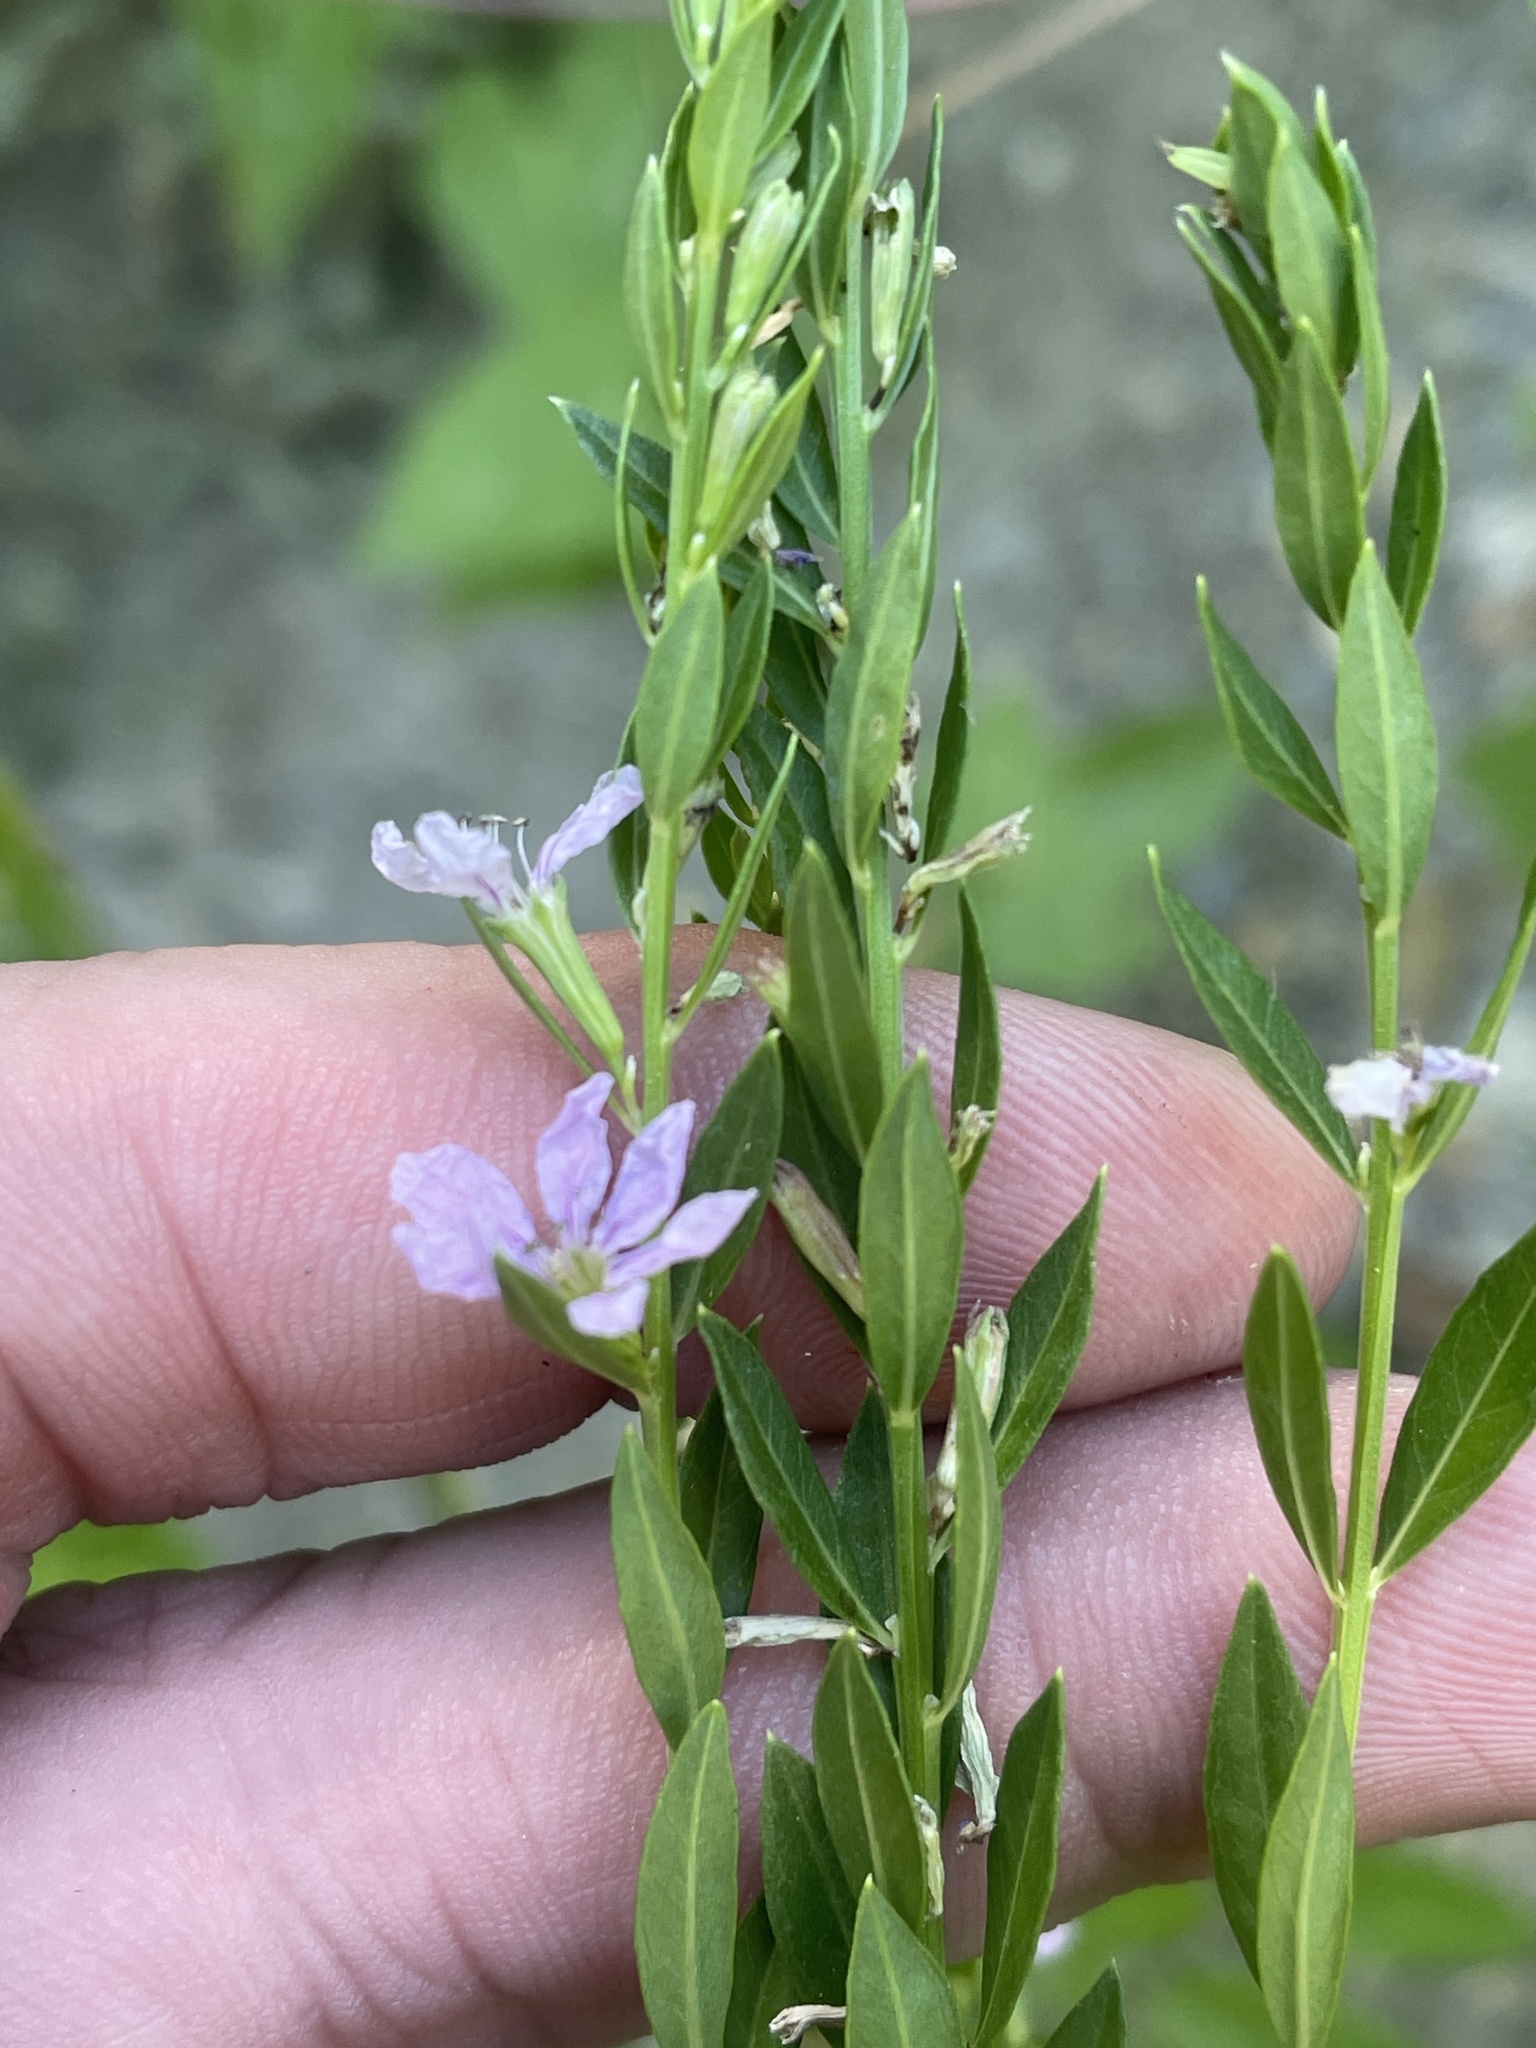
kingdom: Plantae
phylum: Tracheophyta
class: Magnoliopsida
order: Myrtales
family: Lythraceae
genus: Lythrum
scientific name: Lythrum alatum
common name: Winged loosestrife
